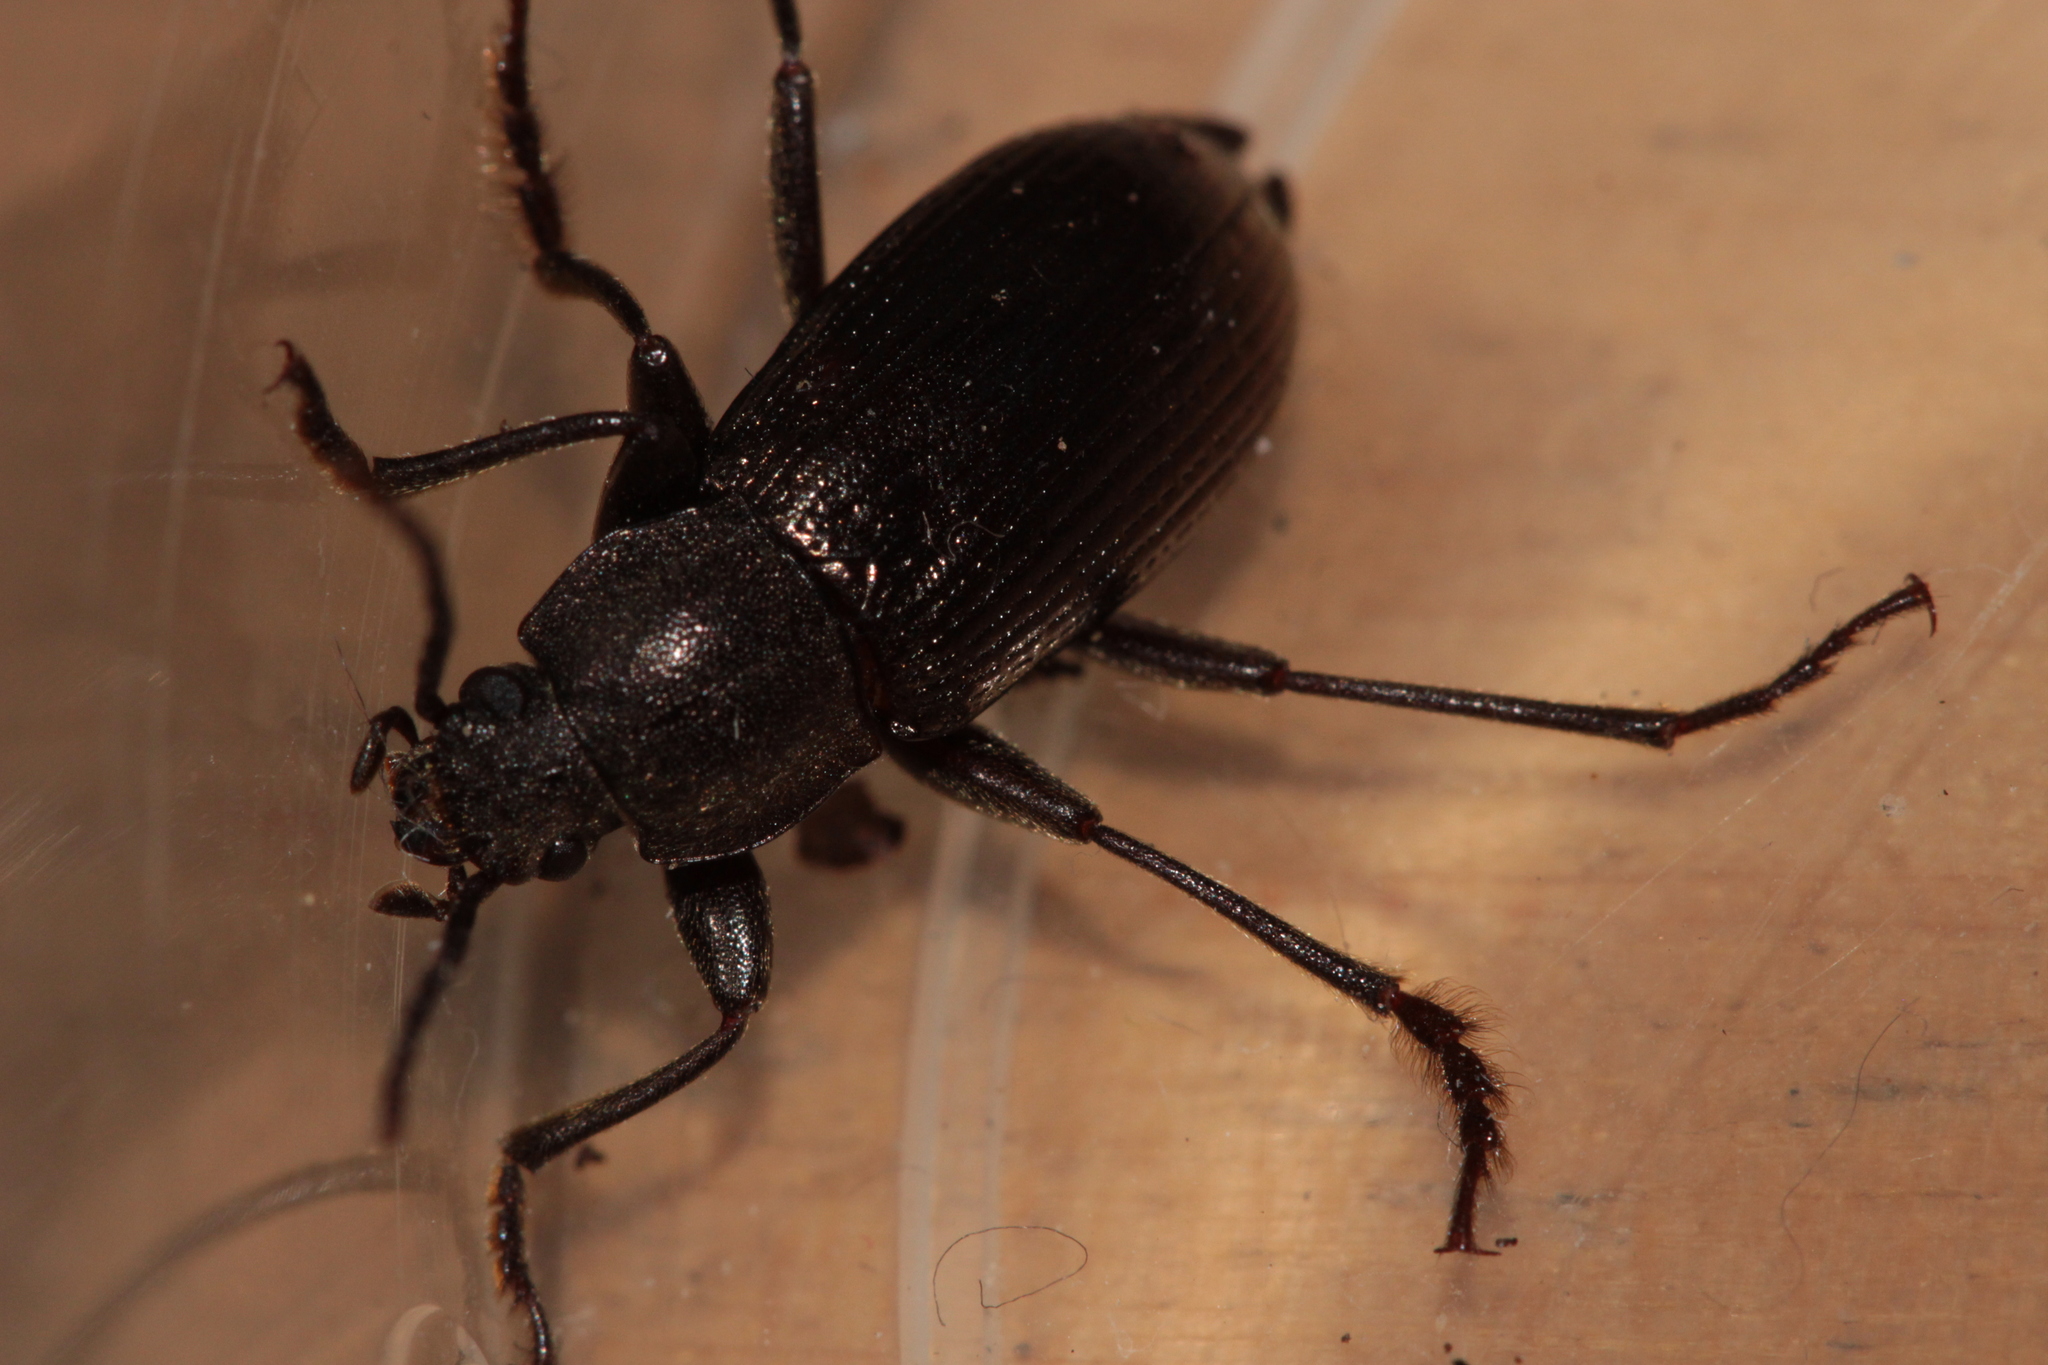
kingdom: Animalia
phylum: Arthropoda
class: Insecta
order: Coleoptera
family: Tenebrionidae
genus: Stenomax
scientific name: Stenomax aeneus
